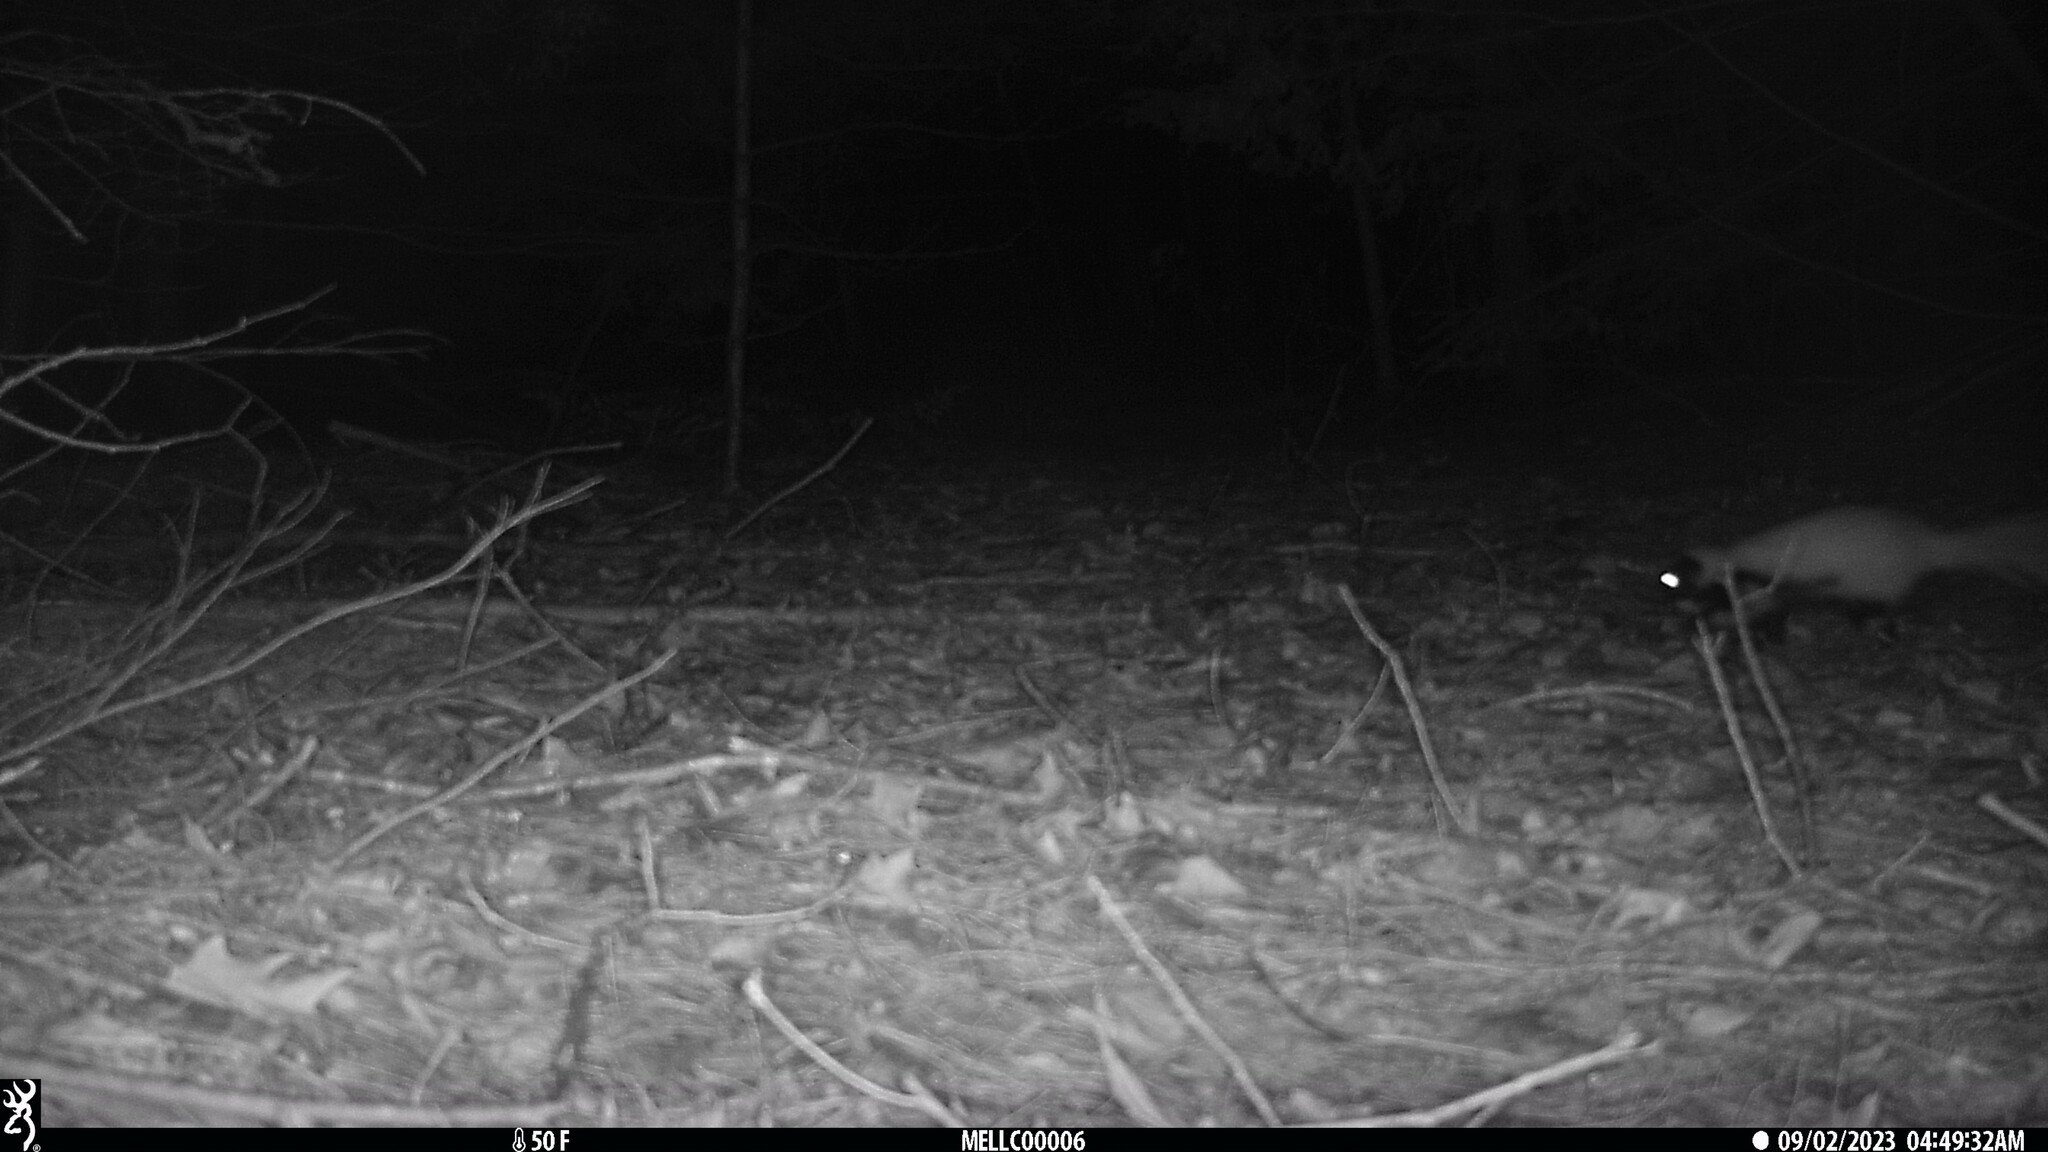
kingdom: Animalia
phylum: Chordata
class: Mammalia
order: Carnivora
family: Mephitidae
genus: Mephitis
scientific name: Mephitis mephitis
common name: Striped skunk
